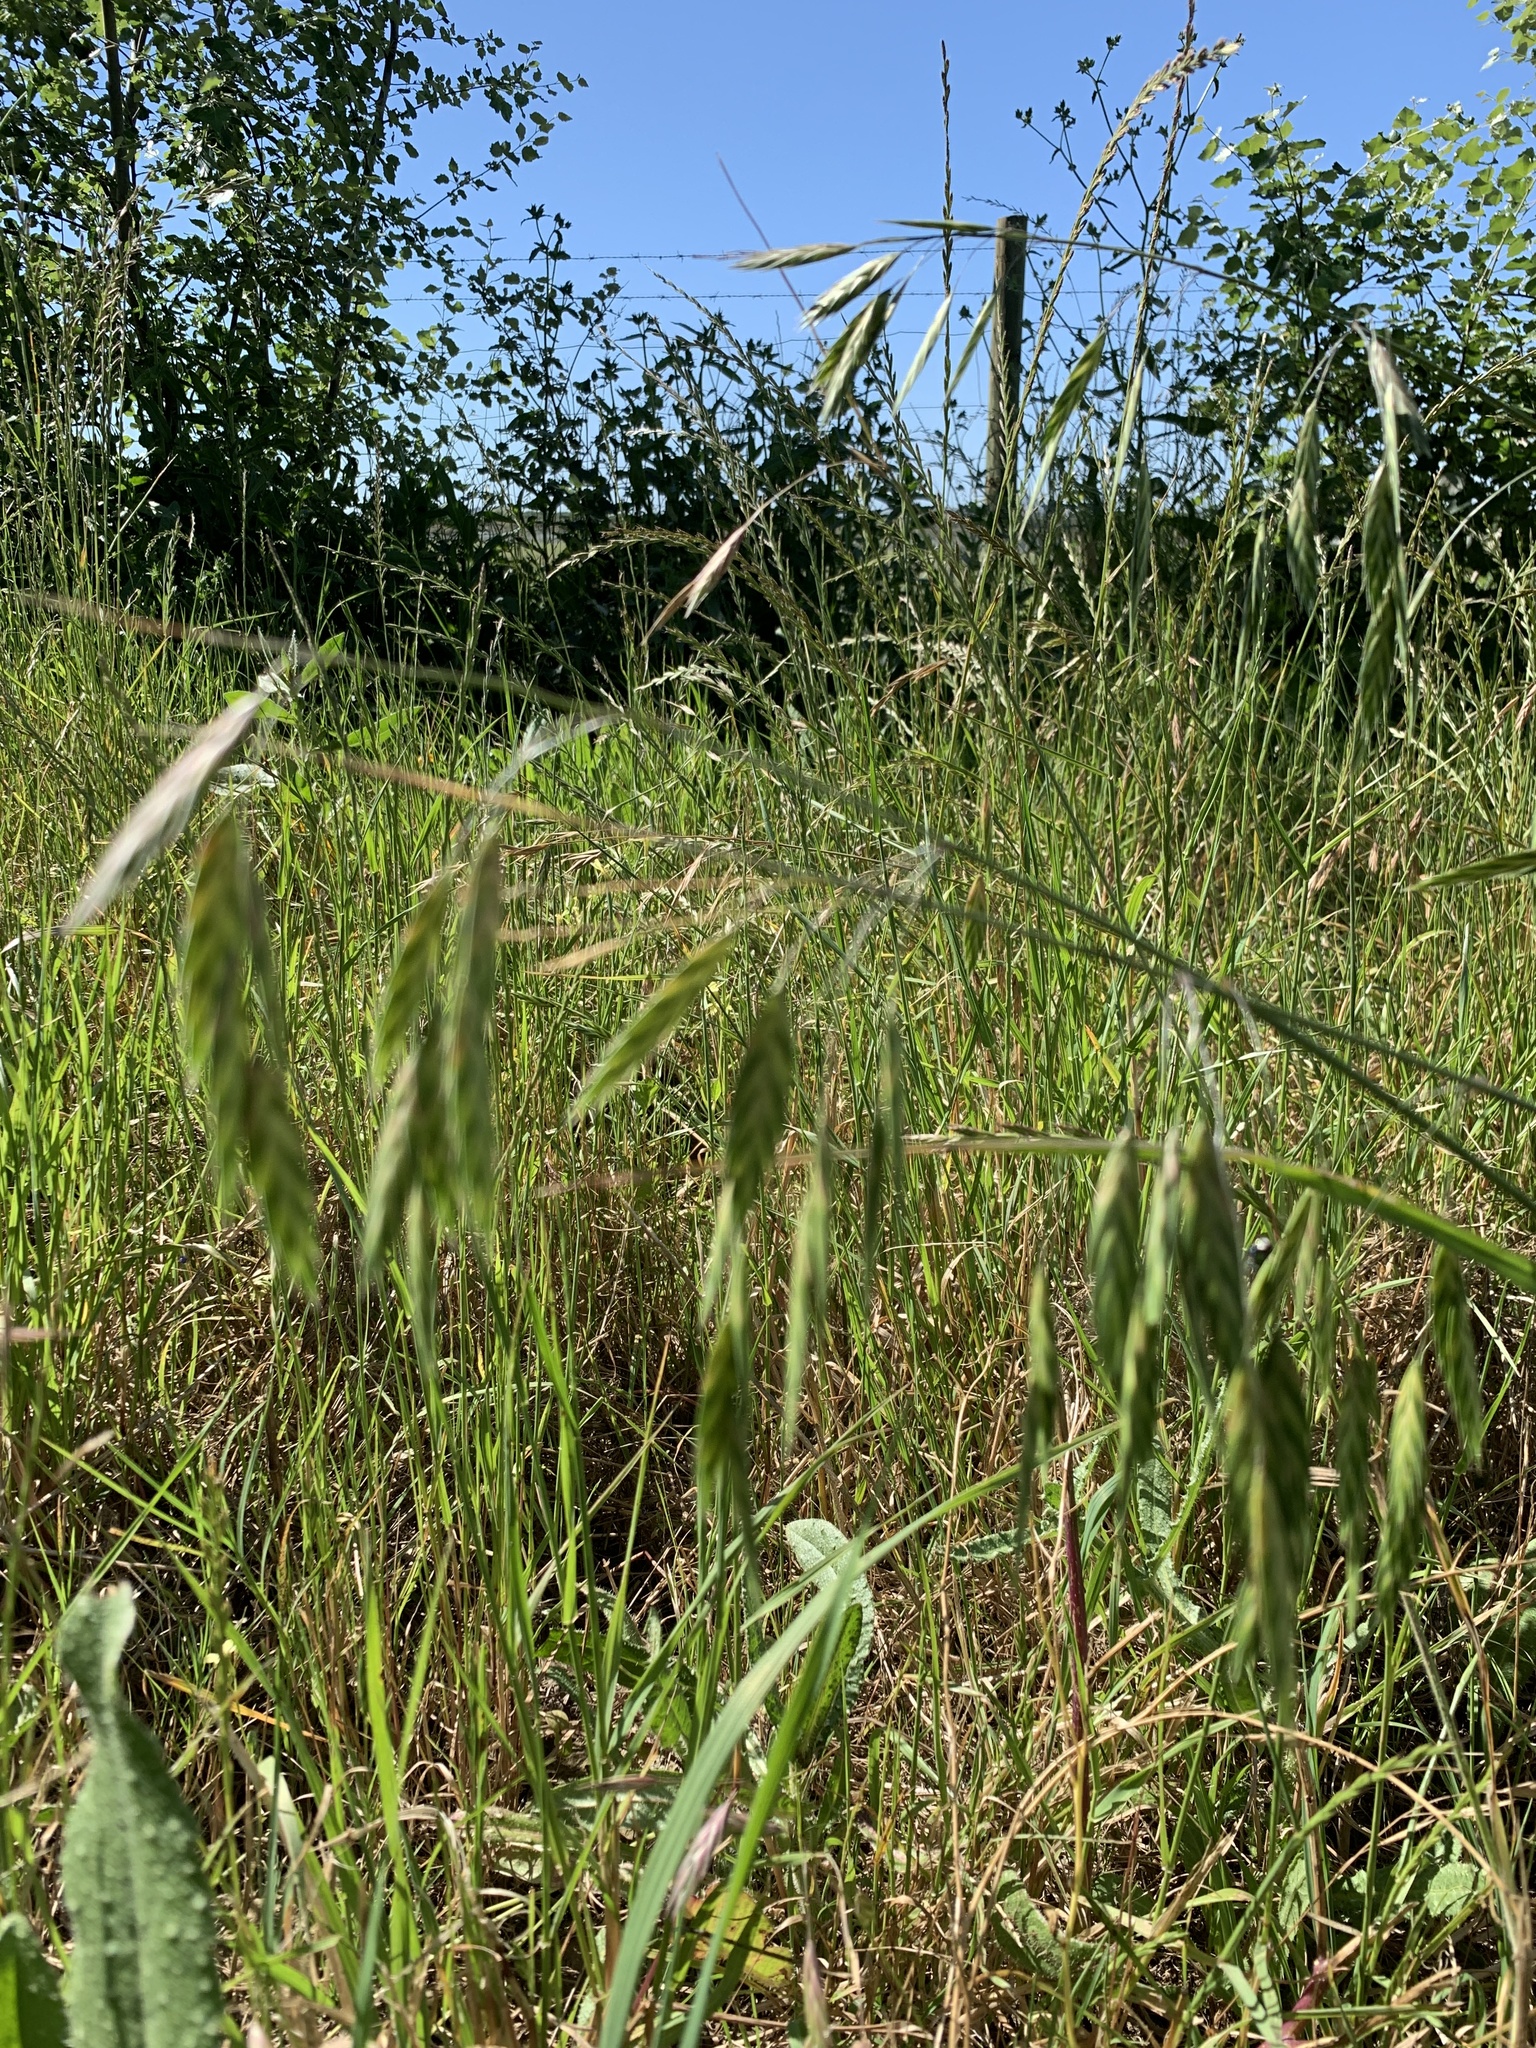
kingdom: Plantae
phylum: Tracheophyta
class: Liliopsida
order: Poales
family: Poaceae
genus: Bromus
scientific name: Bromus catharticus
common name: Rescuegrass
